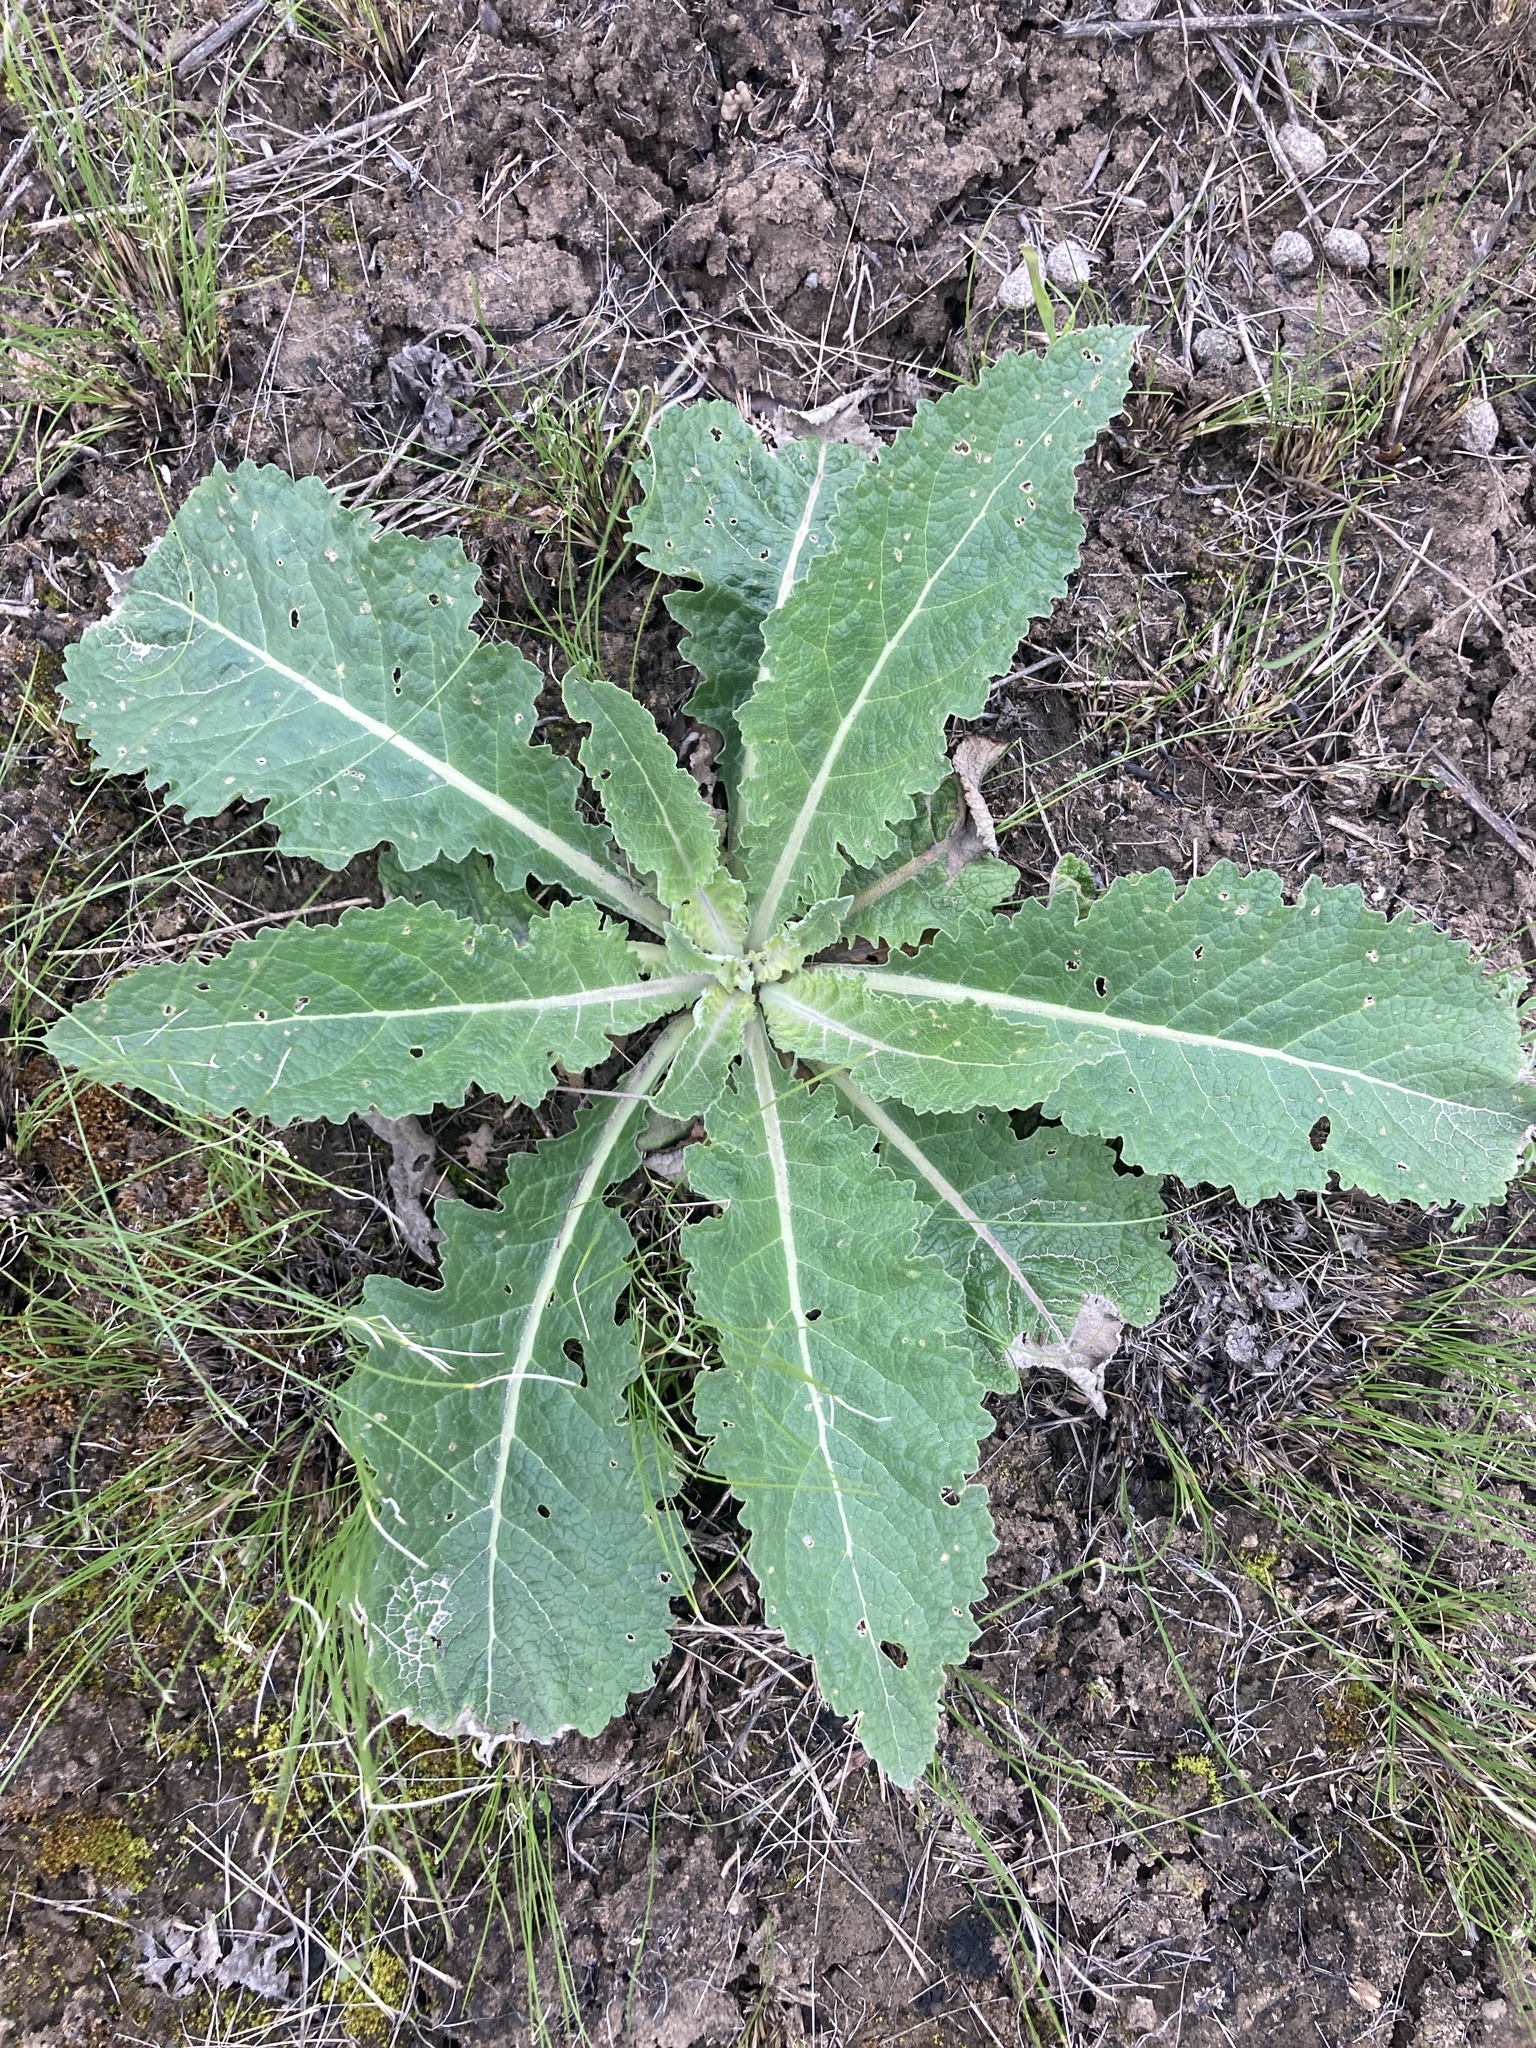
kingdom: Plantae
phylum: Tracheophyta
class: Magnoliopsida
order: Lamiales
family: Scrophulariaceae
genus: Verbascum
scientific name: Verbascum lychnitis
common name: White mullein
